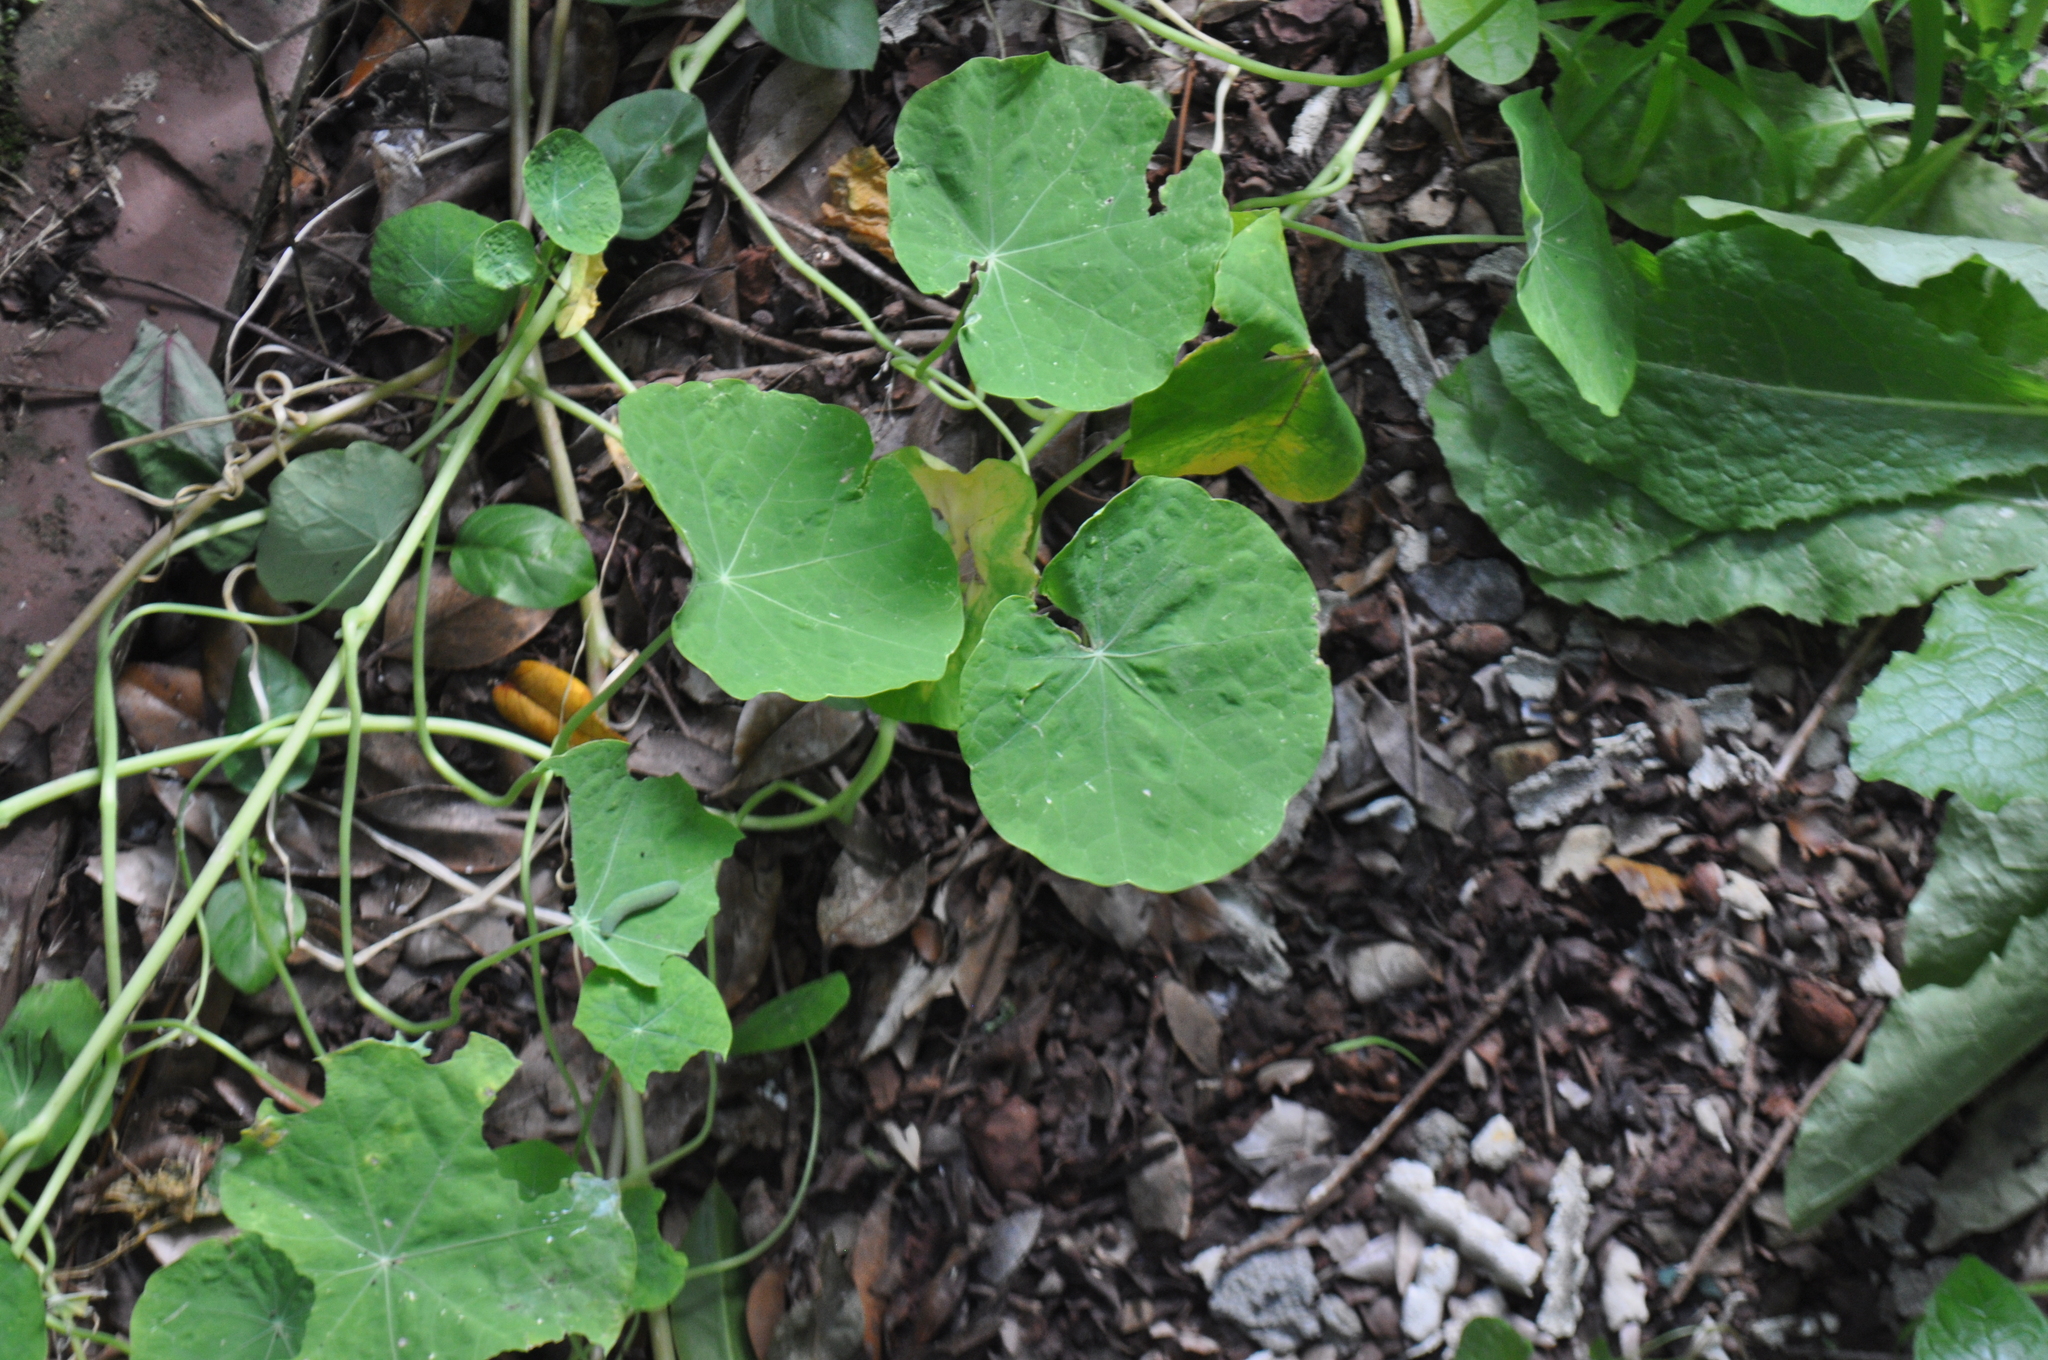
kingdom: Plantae
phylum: Tracheophyta
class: Magnoliopsida
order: Brassicales
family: Tropaeolaceae
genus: Tropaeolum
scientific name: Tropaeolum majus
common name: Nasturtium
